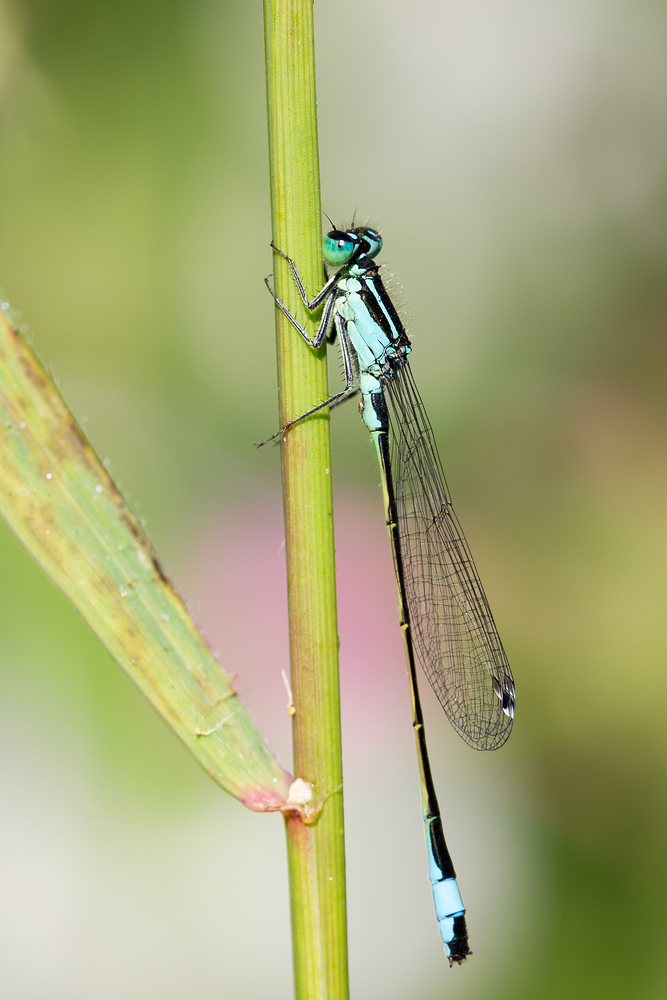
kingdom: Animalia
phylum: Arthropoda
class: Insecta
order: Odonata
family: Coenagrionidae
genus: Ischnura
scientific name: Ischnura elegans
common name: Blue-tailed damselfly
